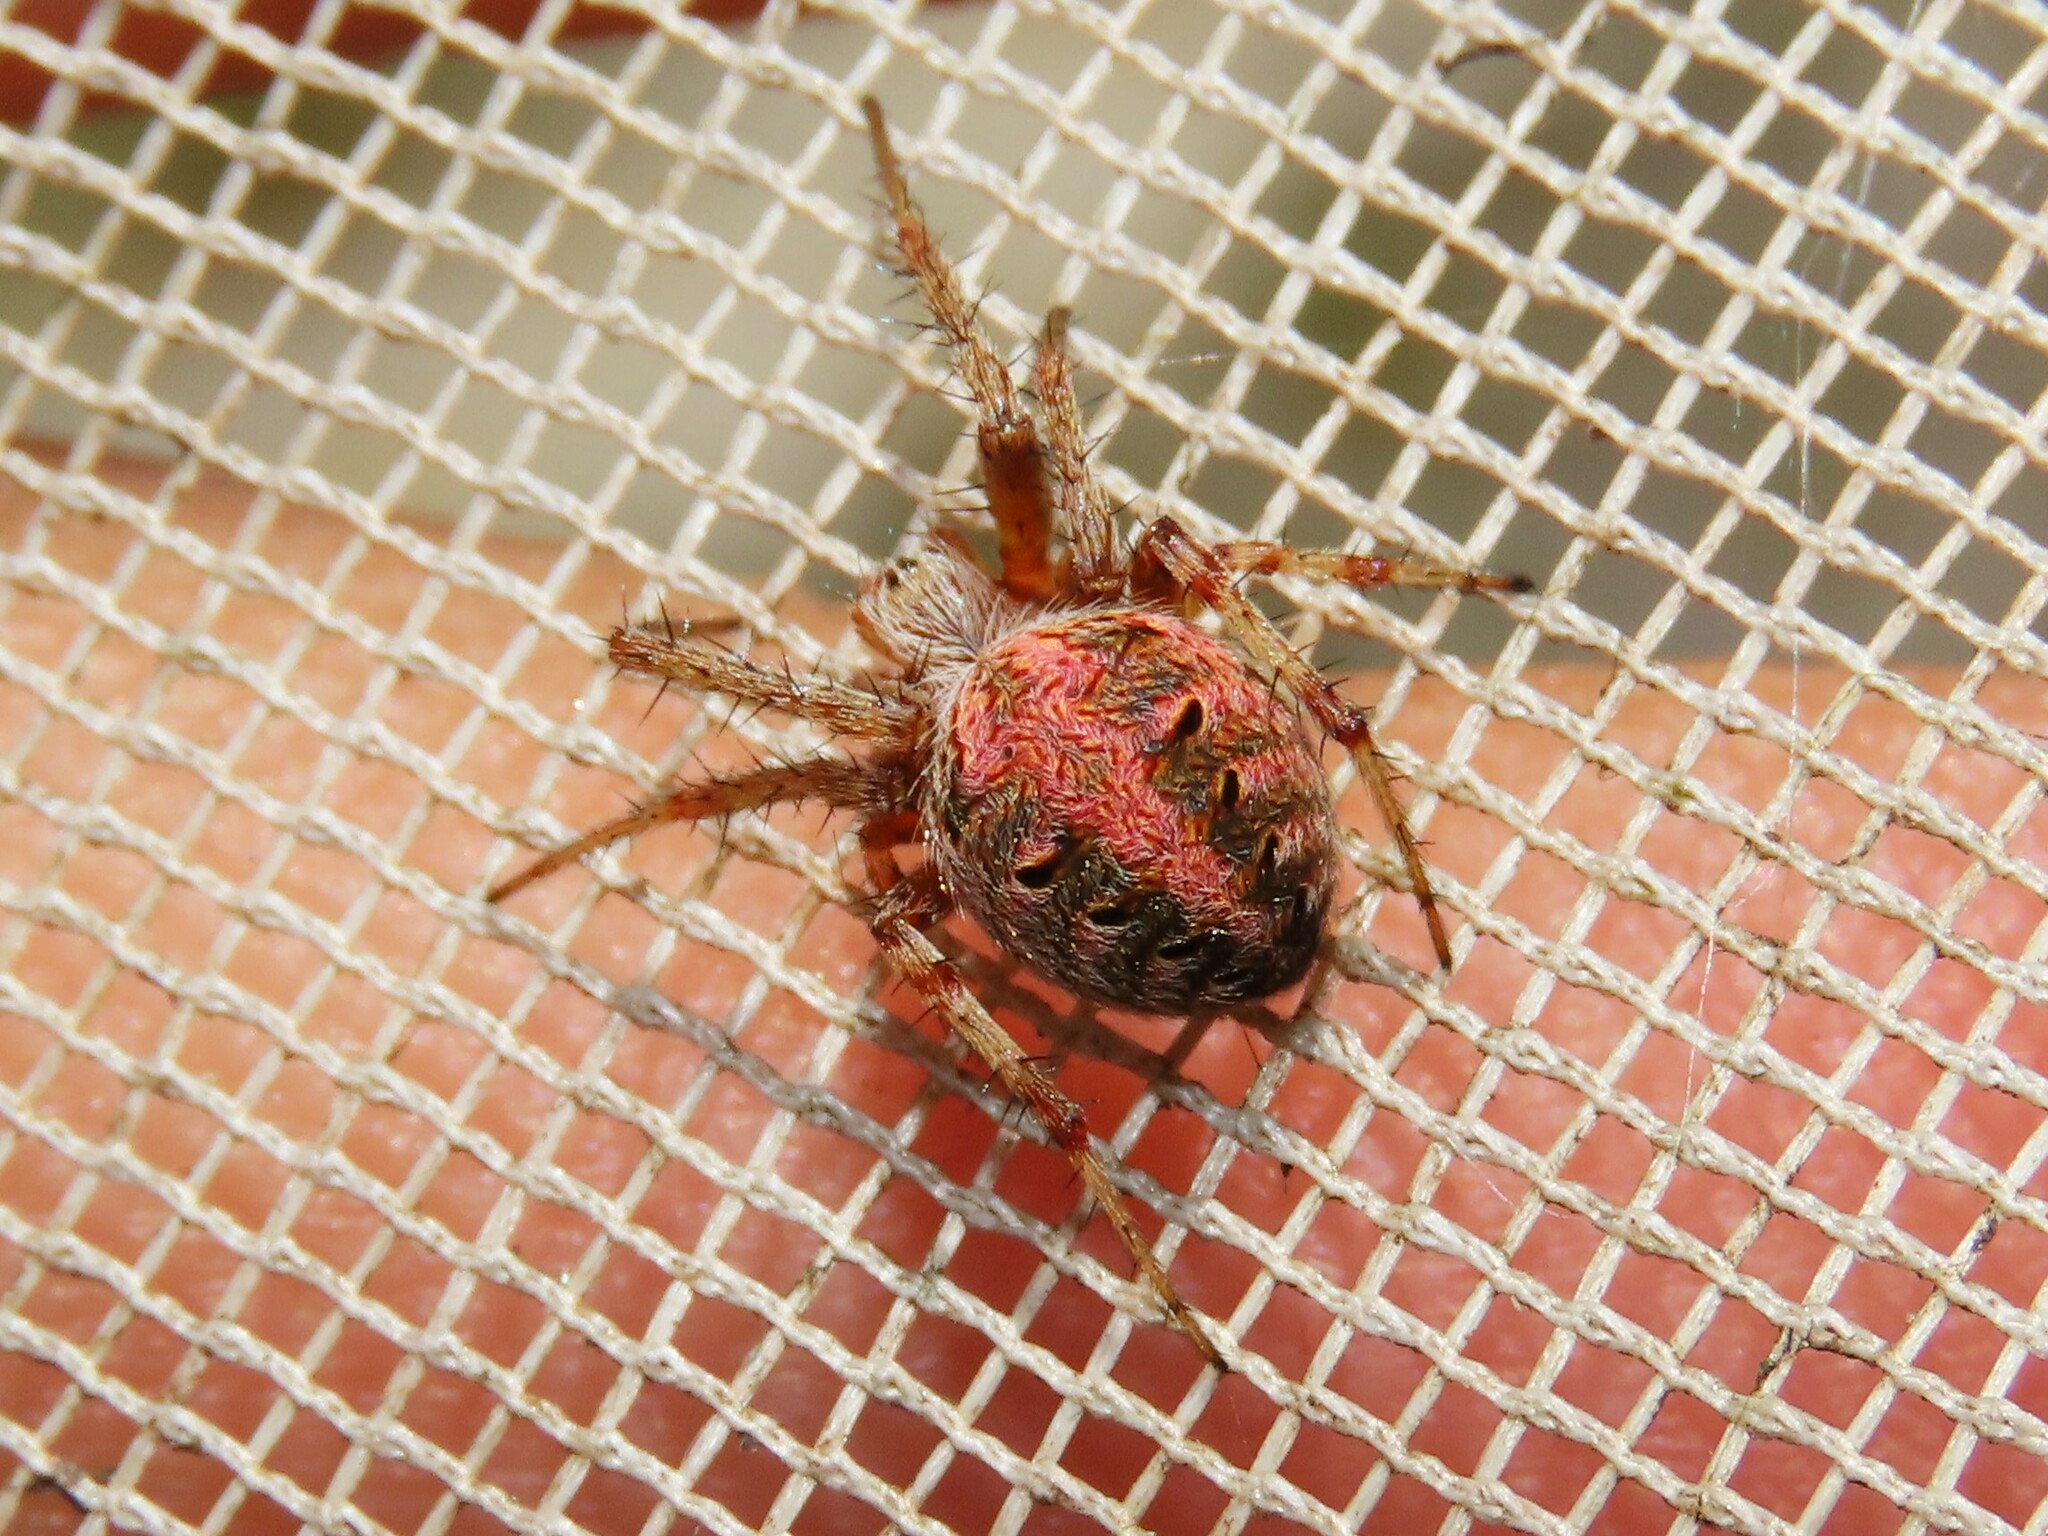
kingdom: Animalia
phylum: Arthropoda
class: Arachnida
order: Araneae
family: Araneidae
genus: Neoscona
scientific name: Neoscona arabesca
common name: Orb weavers
